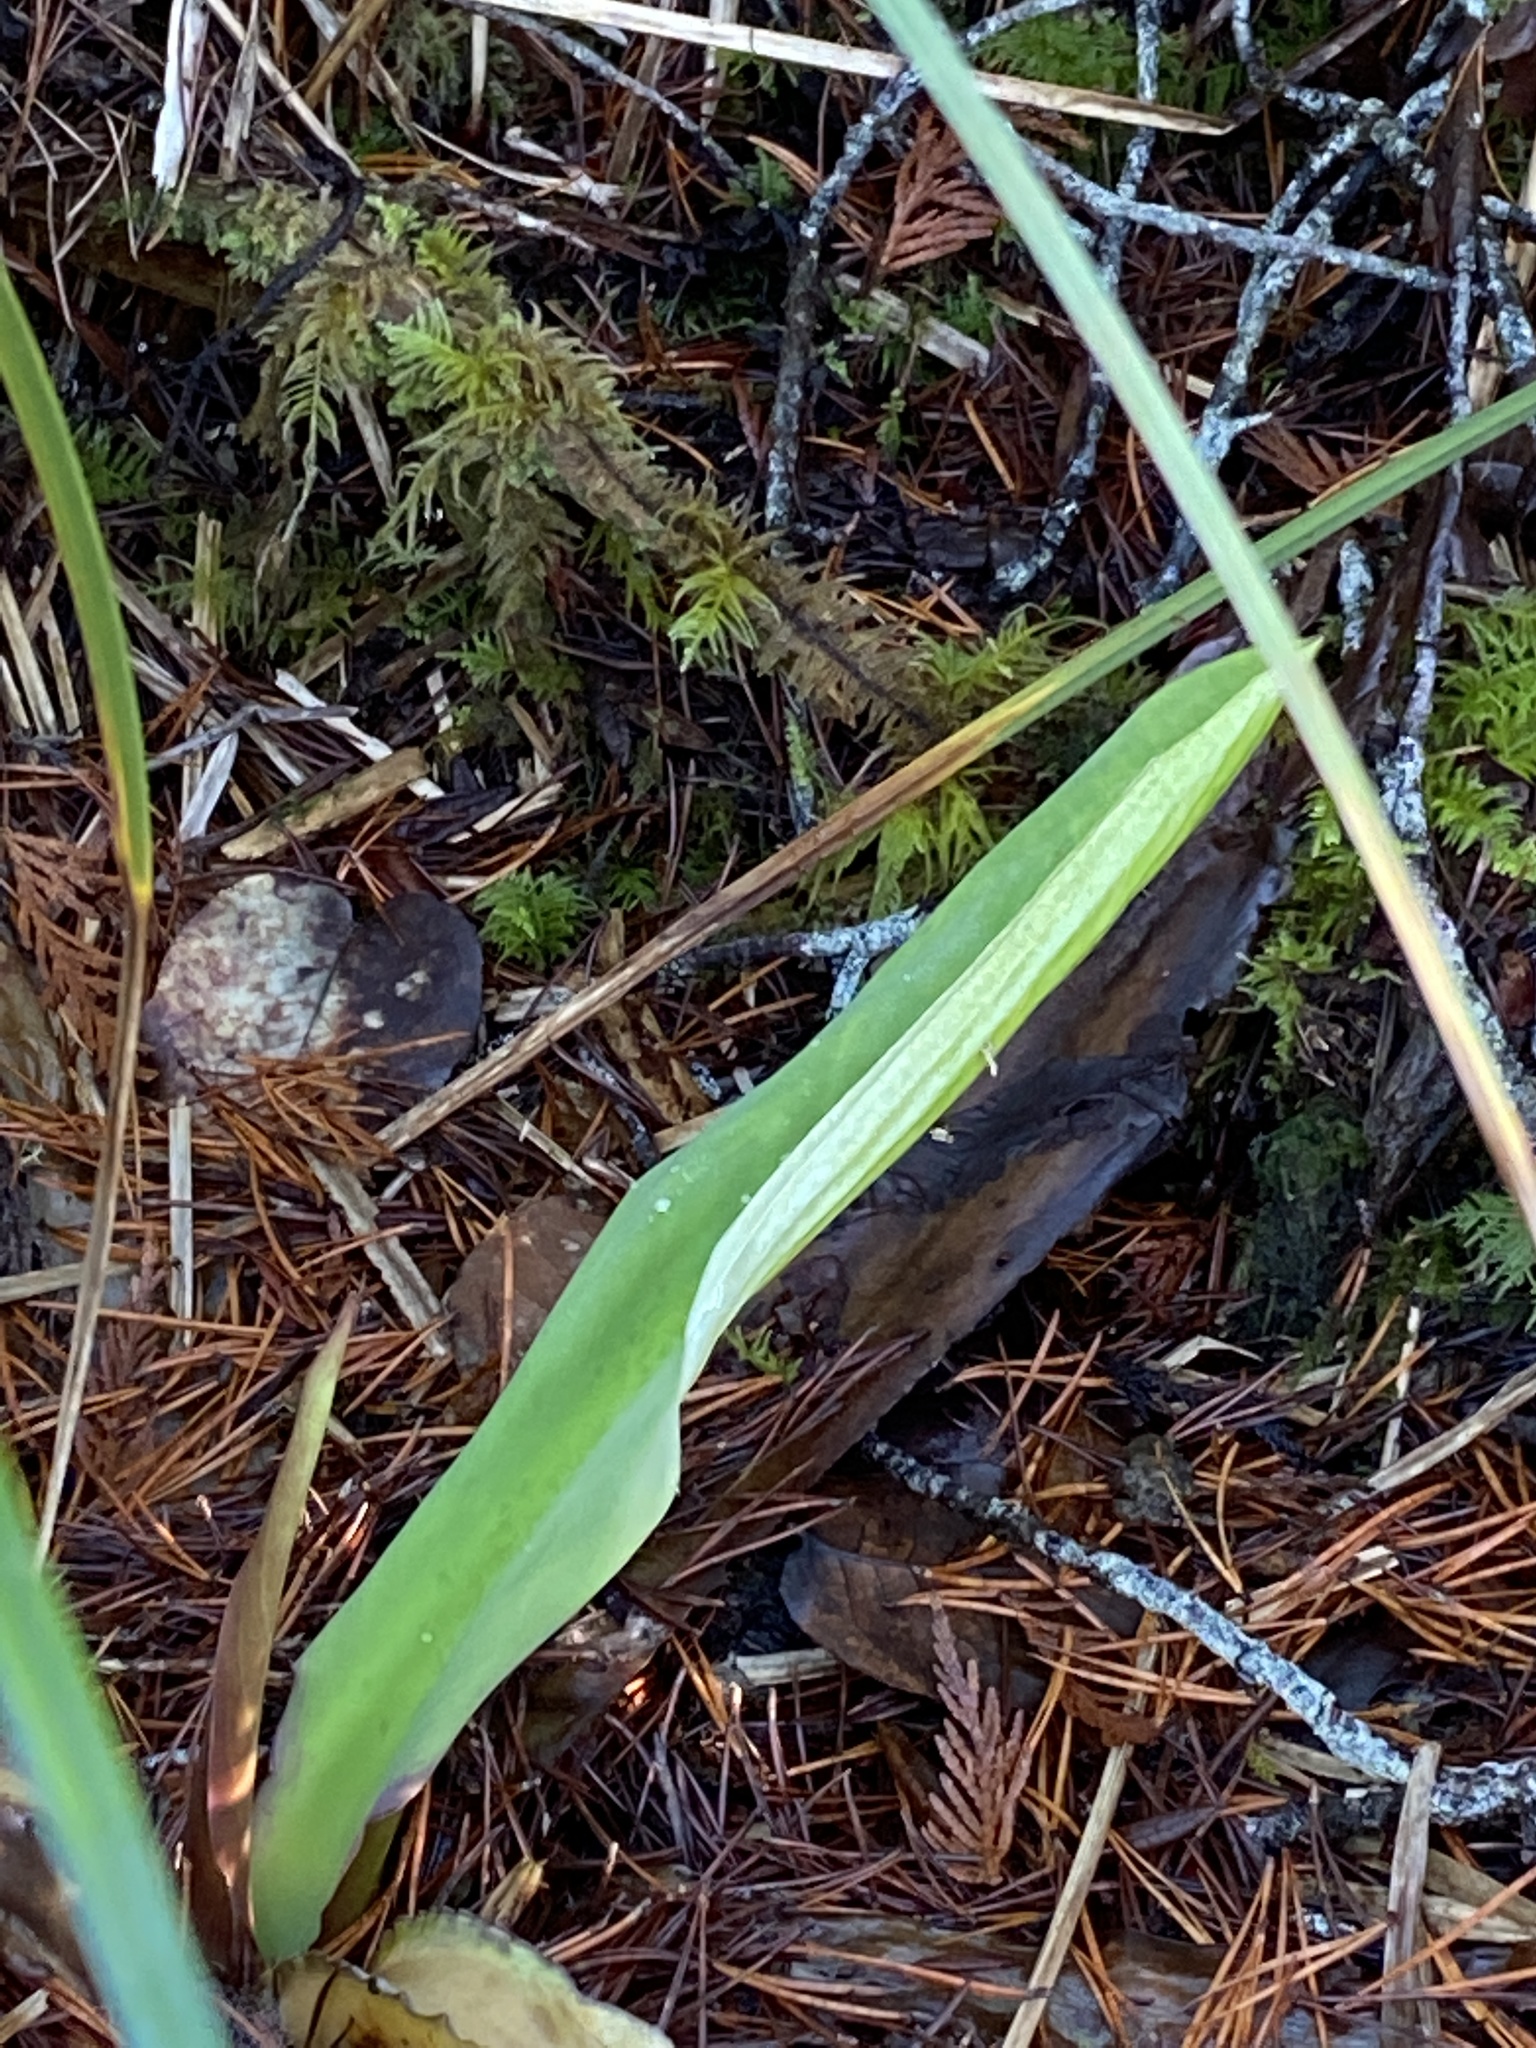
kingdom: Plantae
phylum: Tracheophyta
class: Liliopsida
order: Alismatales
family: Araceae
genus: Lysichiton
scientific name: Lysichiton americanus
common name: American skunk cabbage
